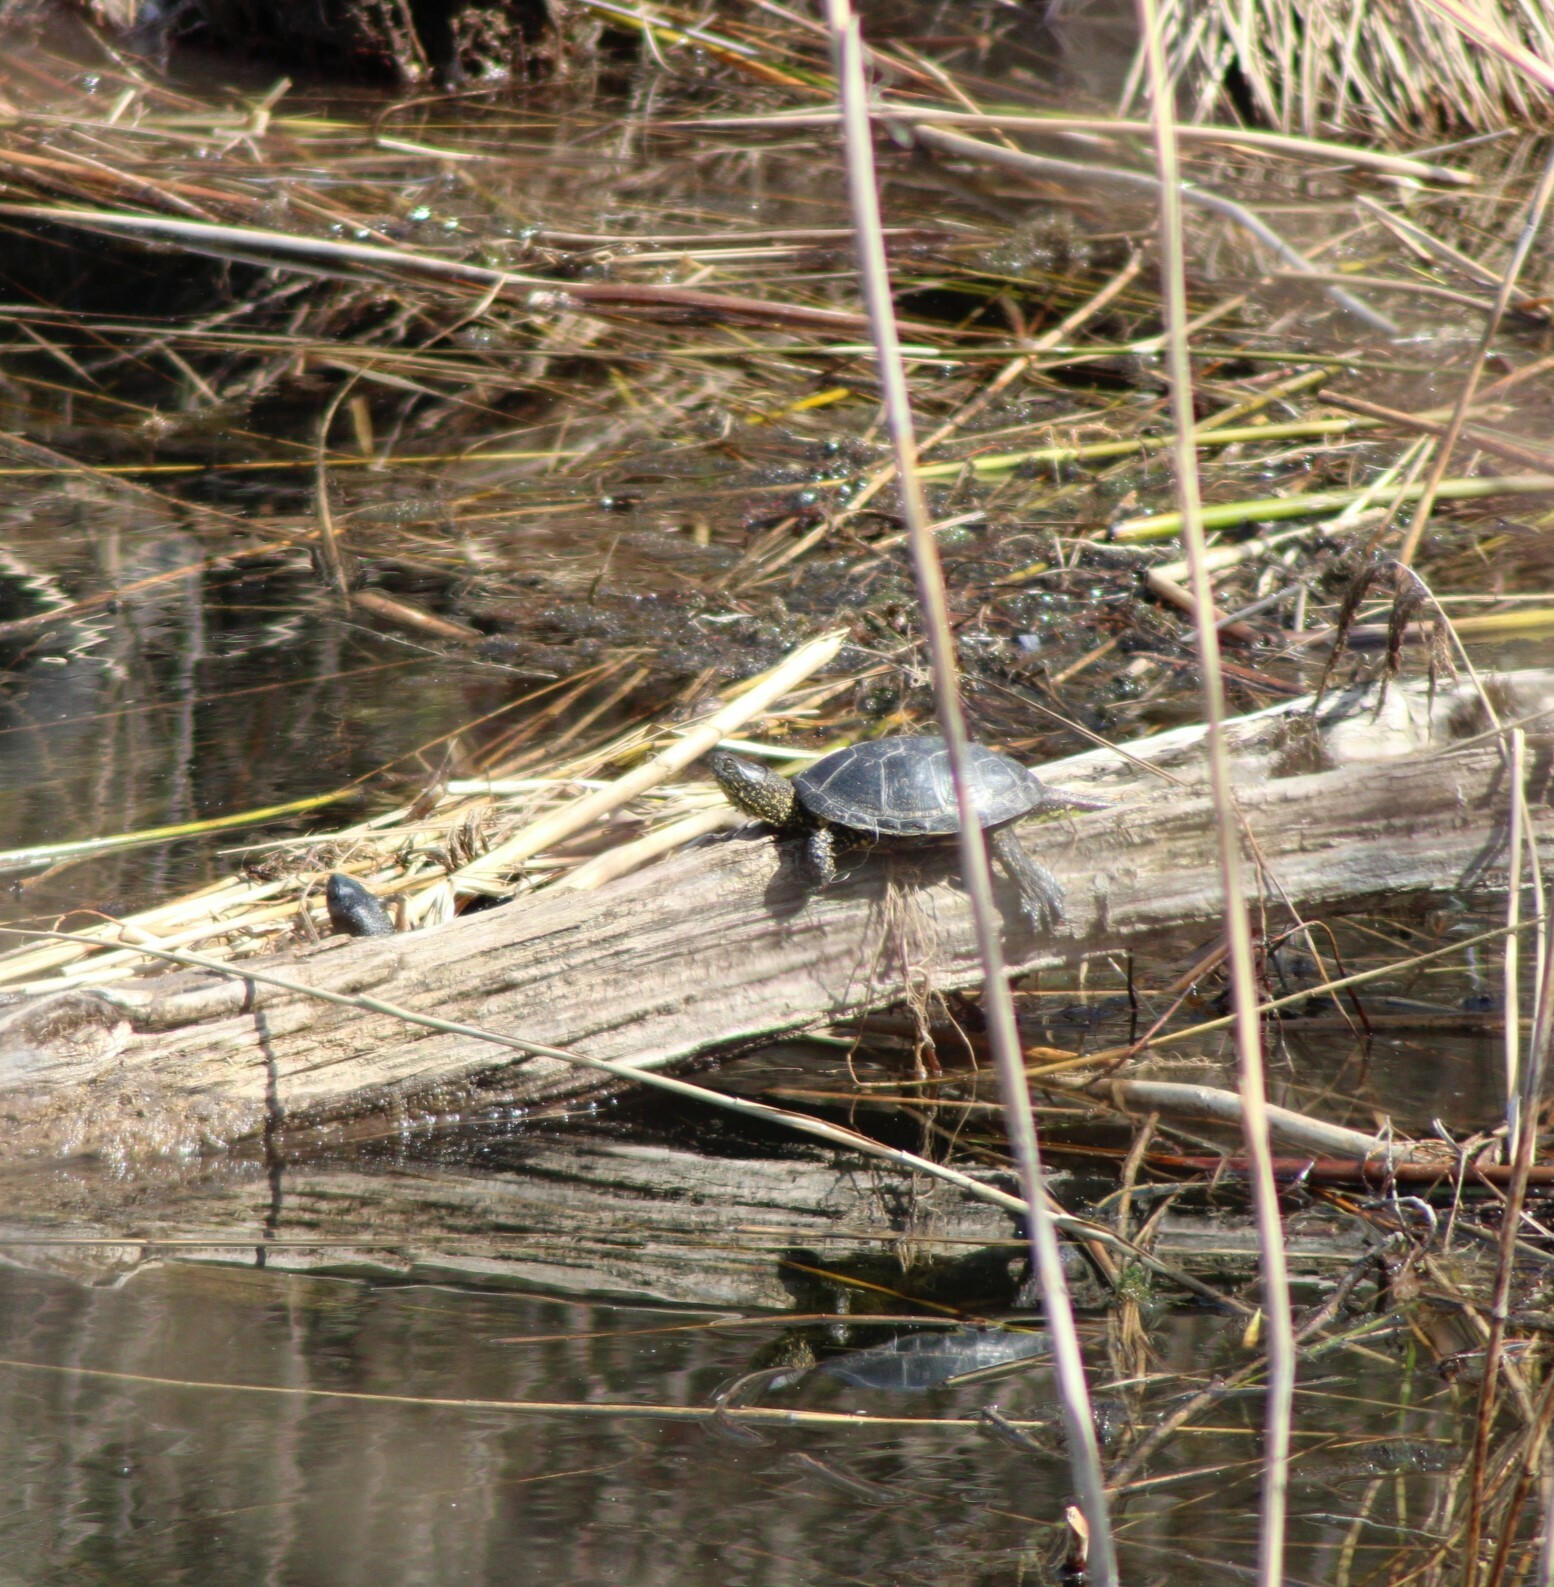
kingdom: Animalia
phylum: Chordata
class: Testudines
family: Emydidae
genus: Emys
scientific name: Emys orbicularis
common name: European pond turtle
